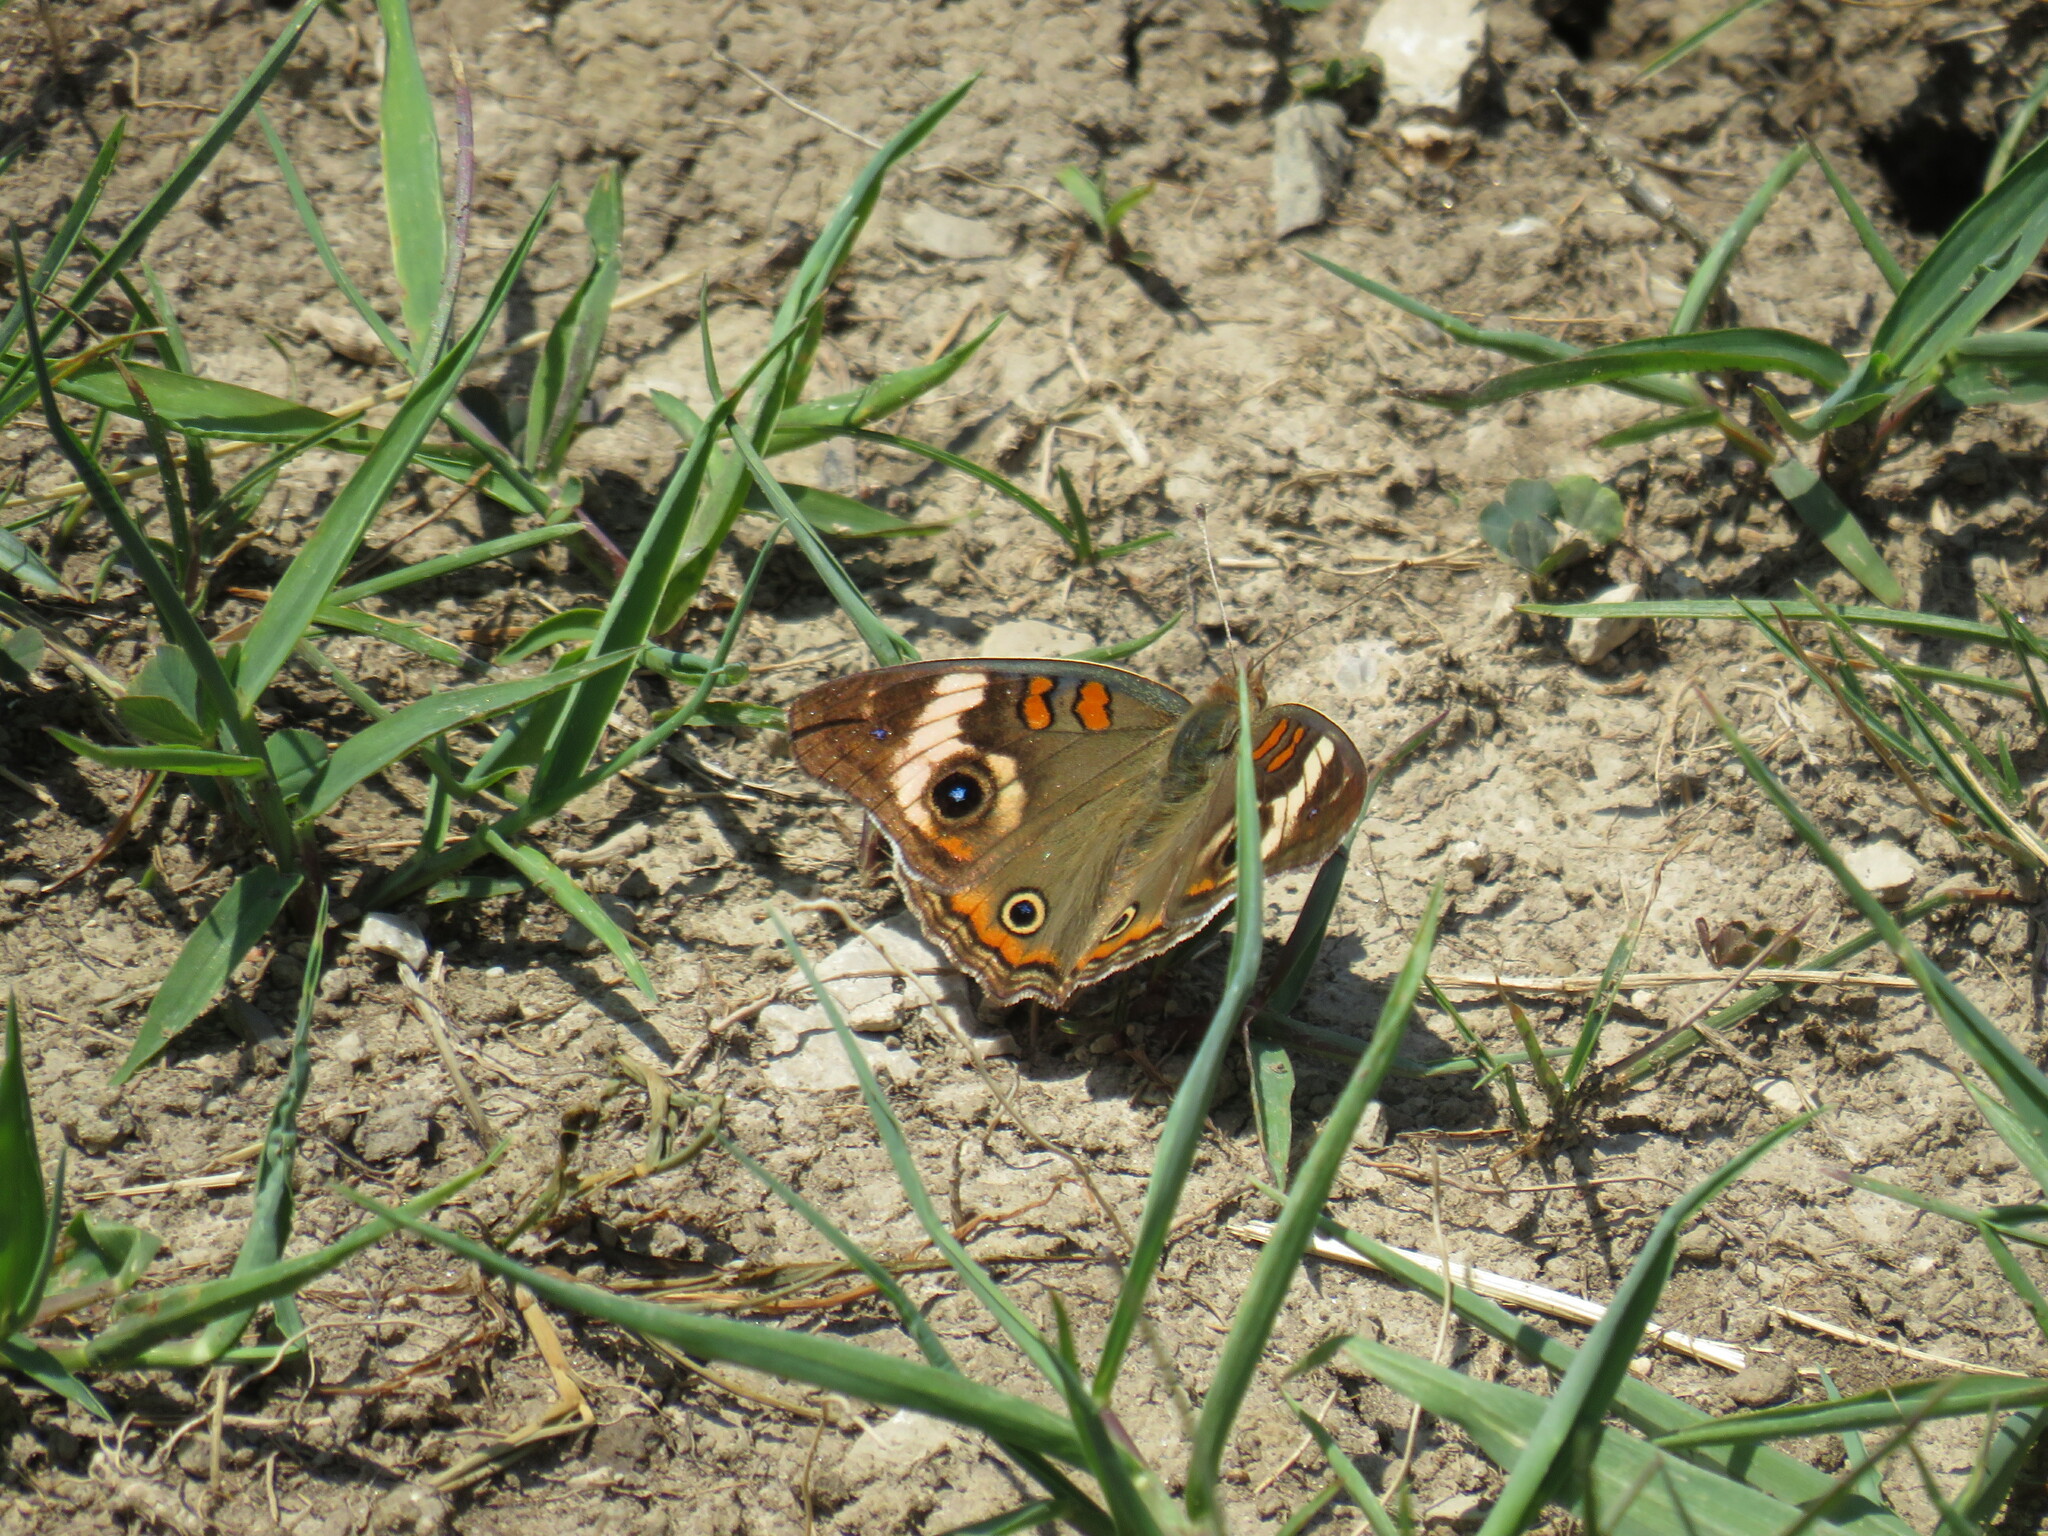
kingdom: Animalia
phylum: Arthropoda
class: Insecta
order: Lepidoptera
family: Nymphalidae
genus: Junonia
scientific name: Junonia coenia
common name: Common buckeye
